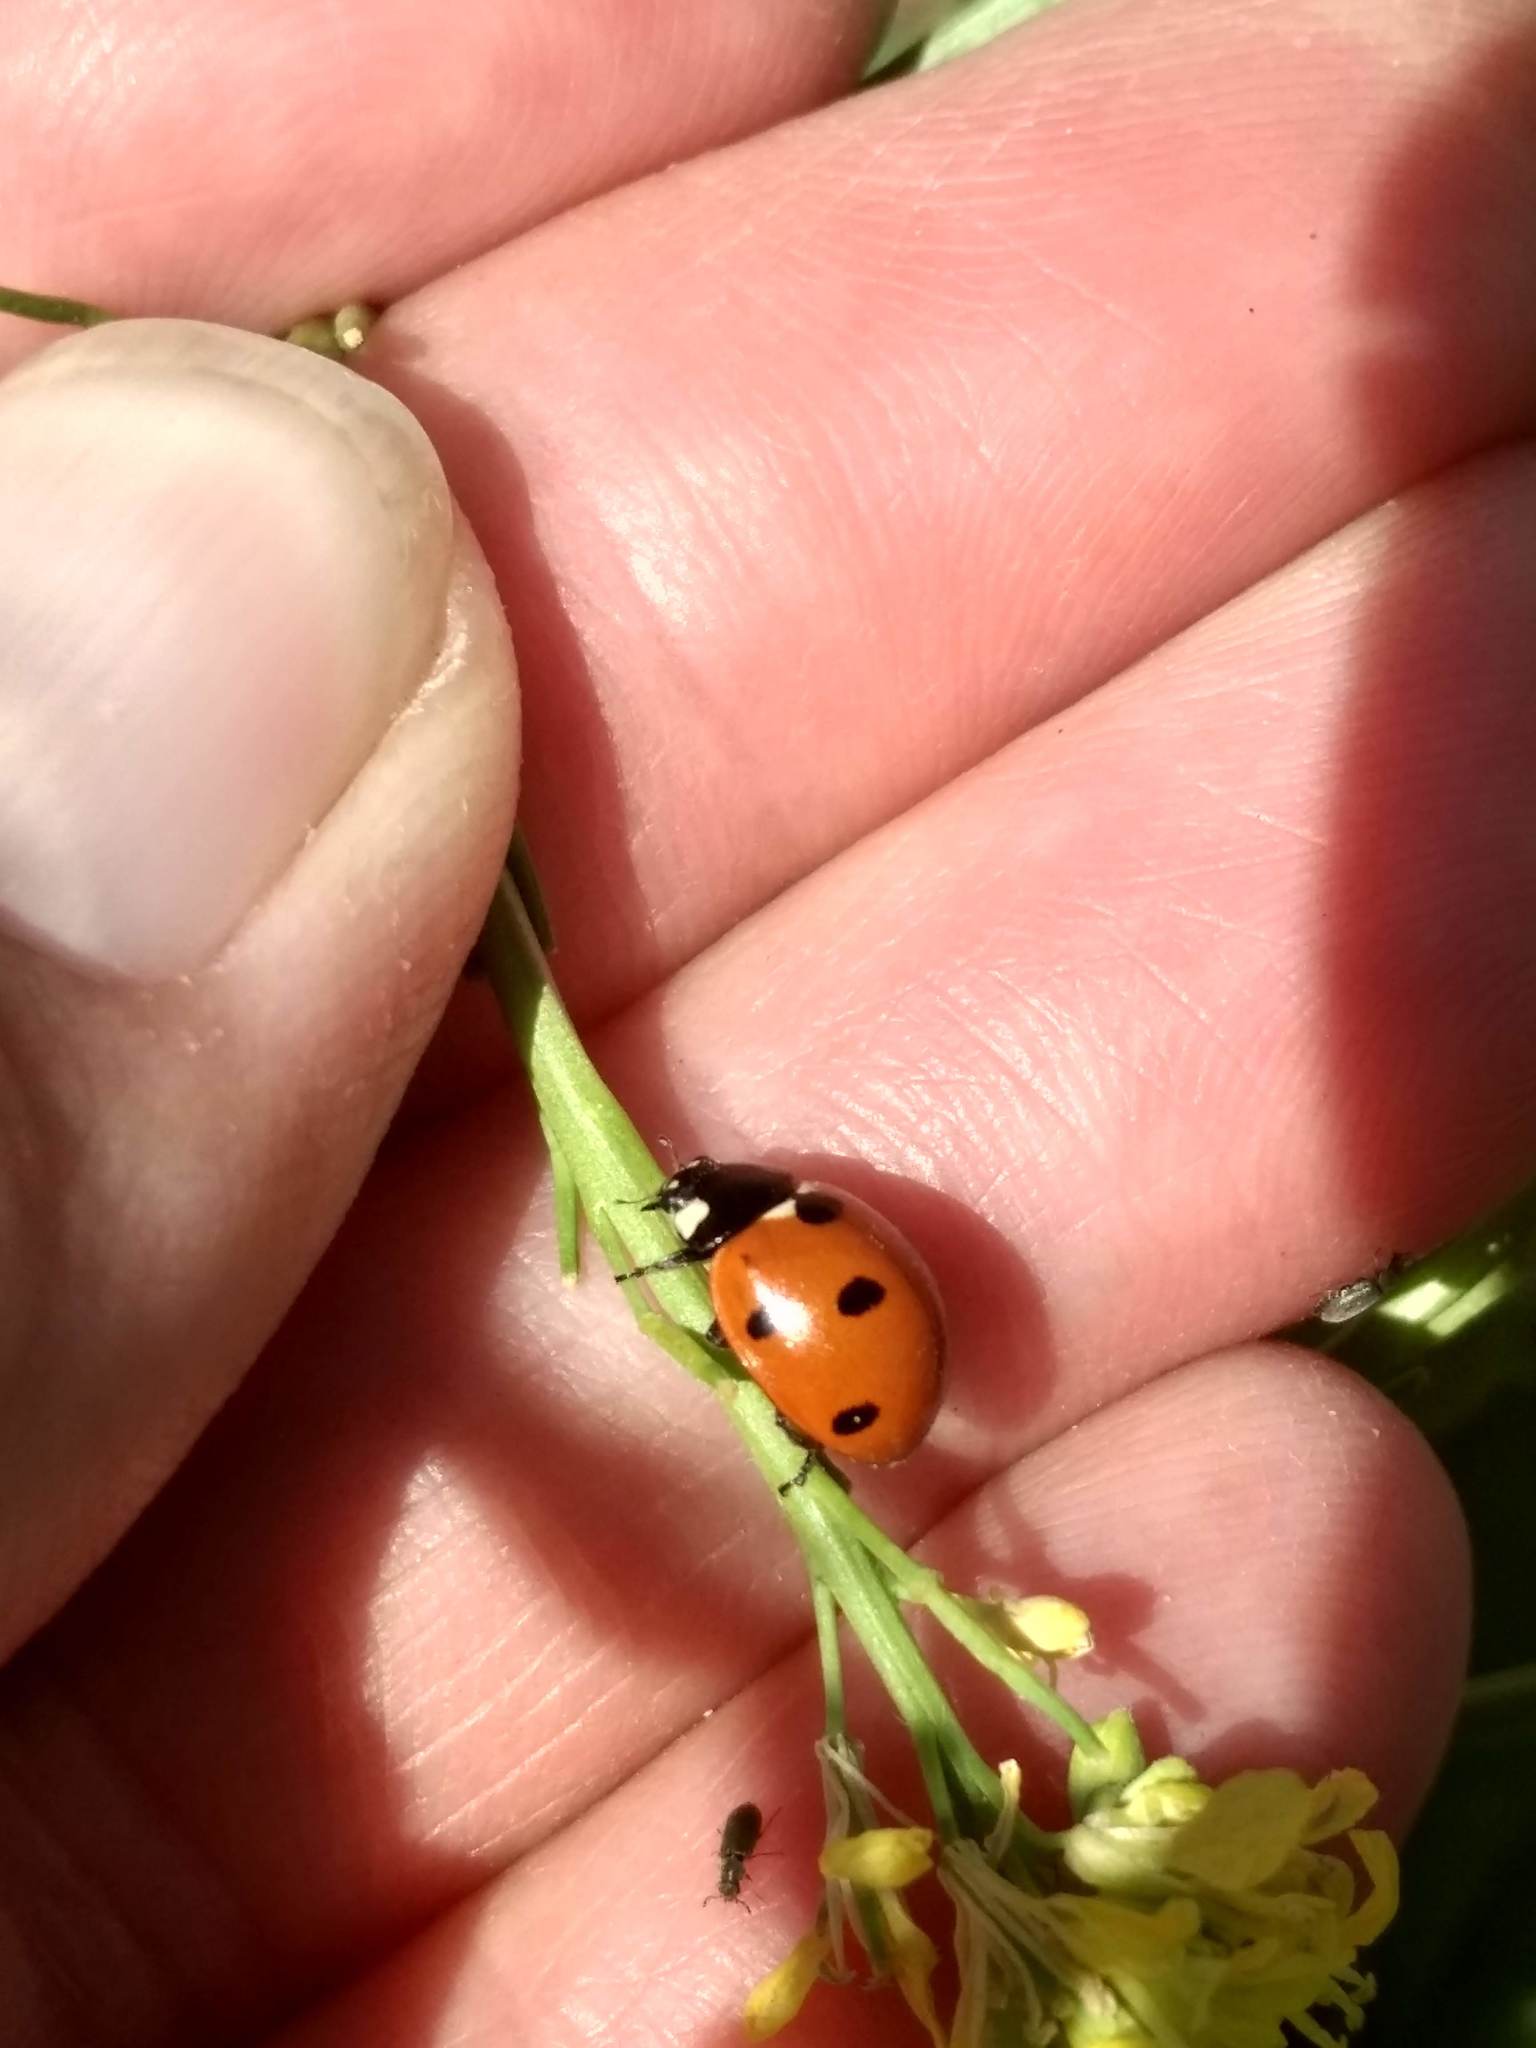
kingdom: Animalia
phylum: Arthropoda
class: Insecta
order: Coleoptera
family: Coccinellidae
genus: Coccinella
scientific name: Coccinella septempunctata
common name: Sevenspotted lady beetle
